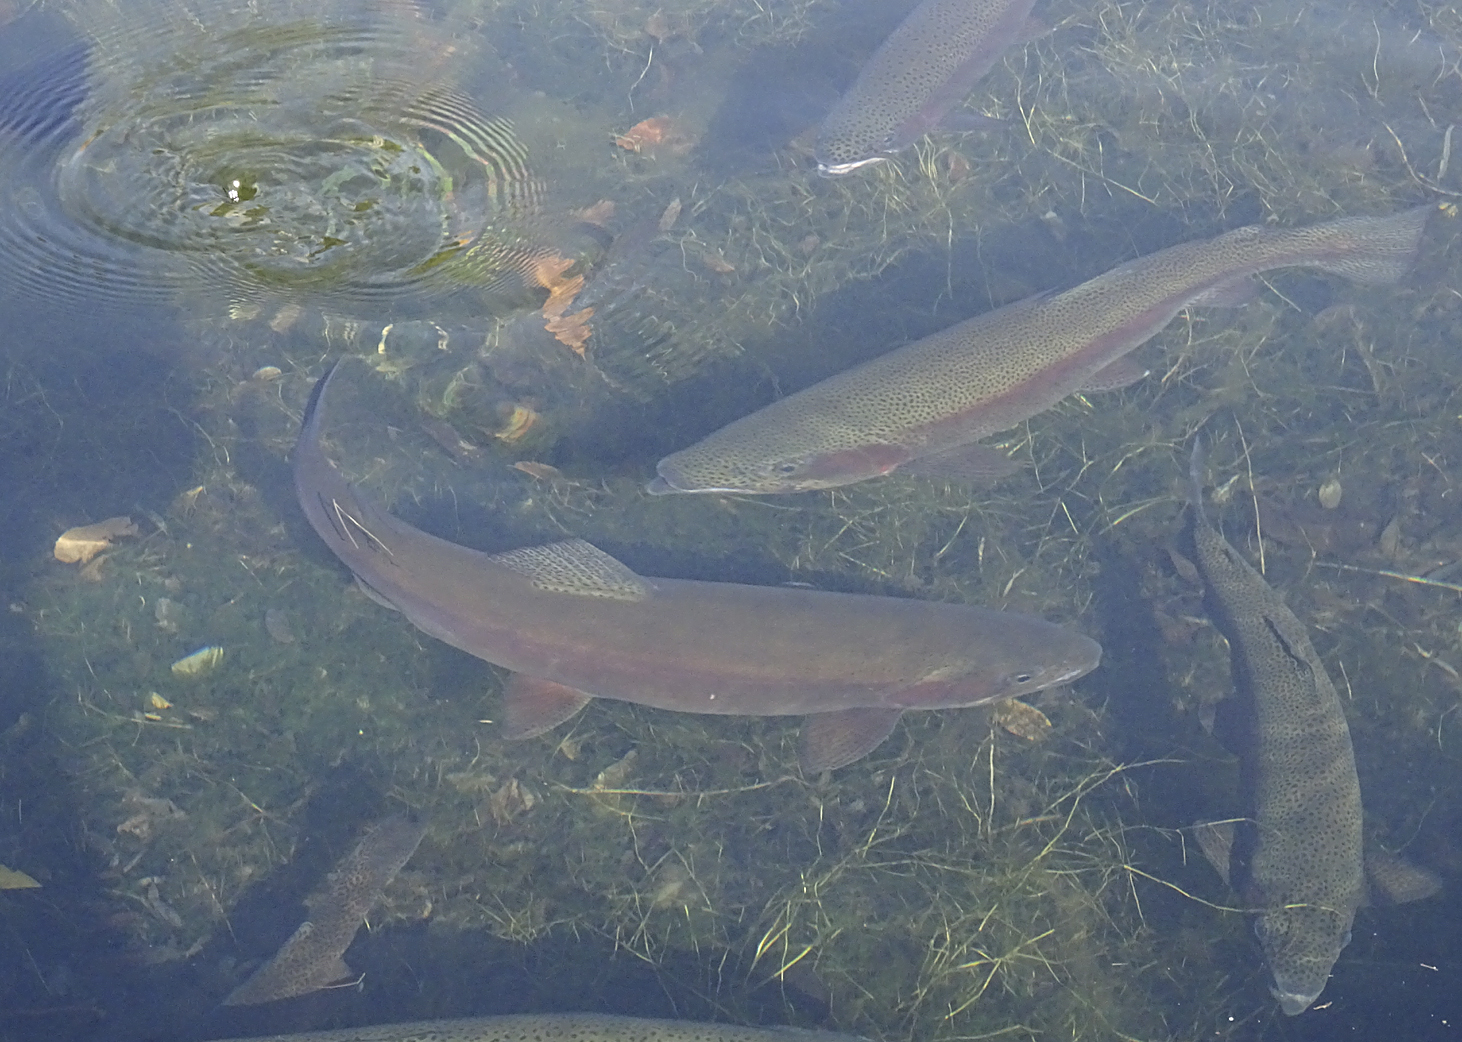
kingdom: Animalia
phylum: Chordata
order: Salmoniformes
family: Salmonidae
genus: Oncorhynchus
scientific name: Oncorhynchus mykiss
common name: Rainbow trout
